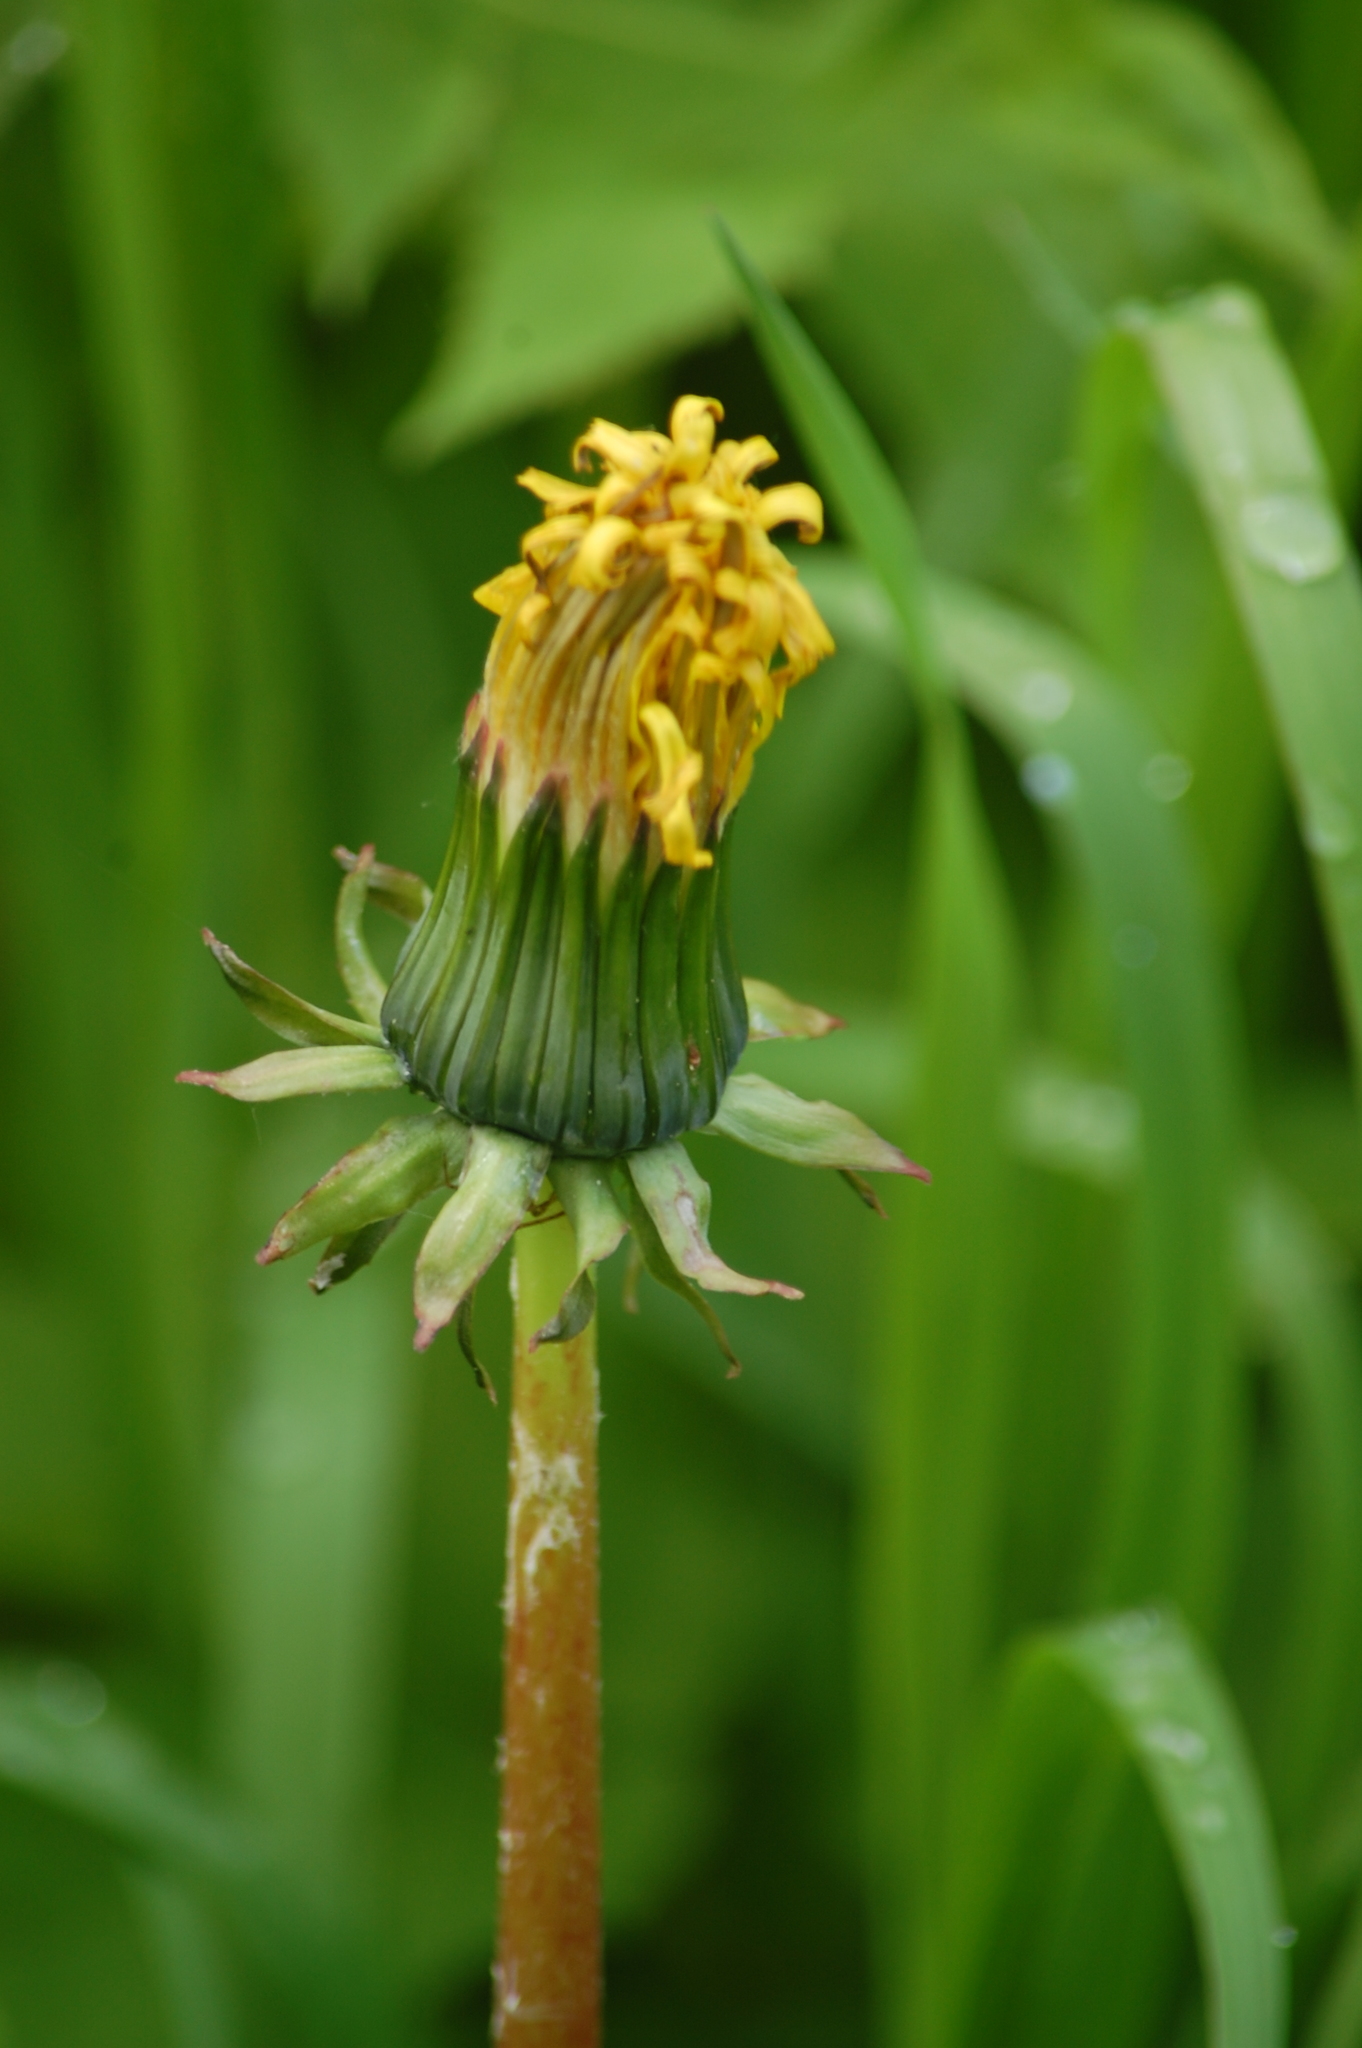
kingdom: Plantae
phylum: Tracheophyta
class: Magnoliopsida
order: Asterales
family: Asteraceae
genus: Taraxacum
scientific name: Taraxacum officinale
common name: Common dandelion
